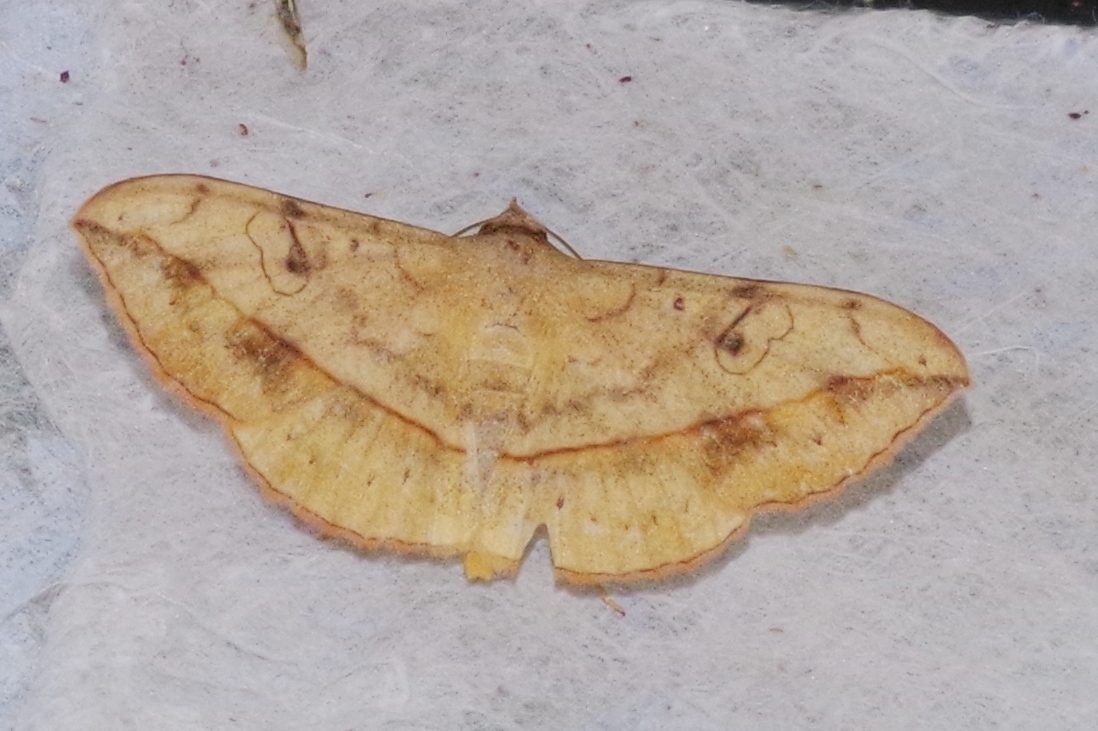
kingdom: Animalia
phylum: Arthropoda
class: Insecta
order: Lepidoptera
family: Erebidae
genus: Anticarsia
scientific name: Anticarsia irrorata
